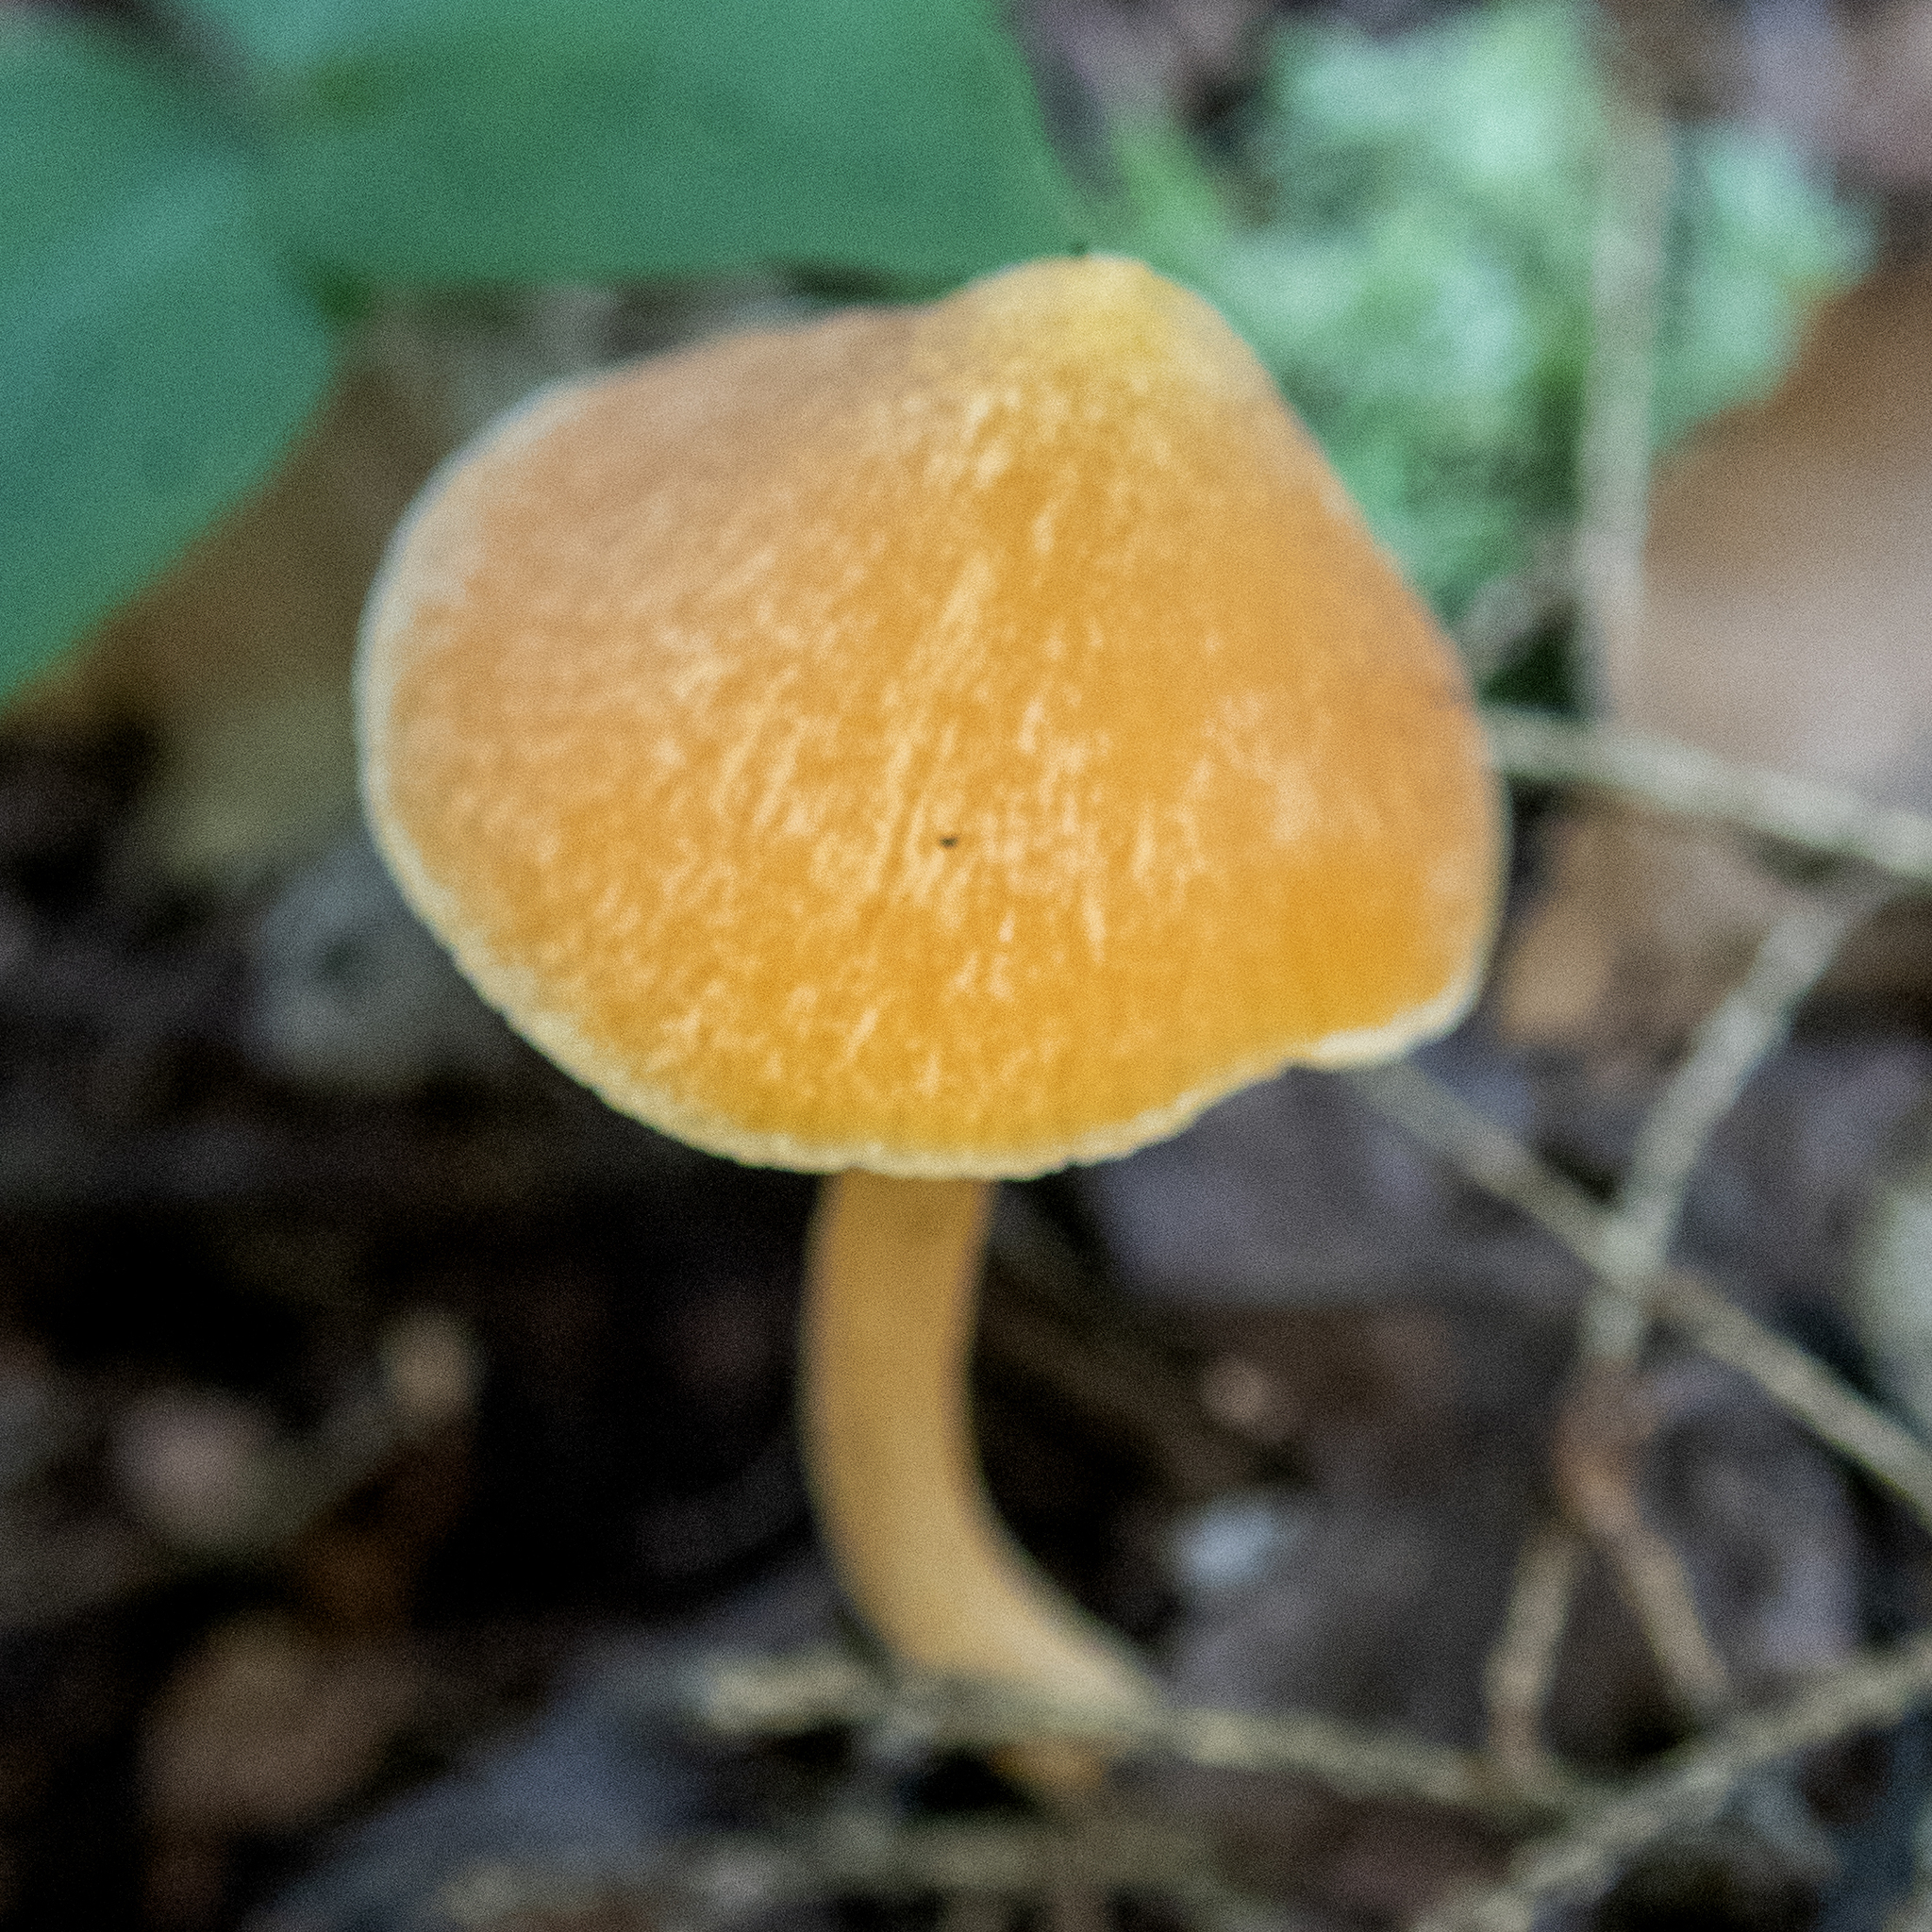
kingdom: Fungi
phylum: Basidiomycota
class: Agaricomycetes
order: Agaricales
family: Entolomataceae
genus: Entoloma
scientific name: Entoloma quadratum
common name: Salmon pinkgill
